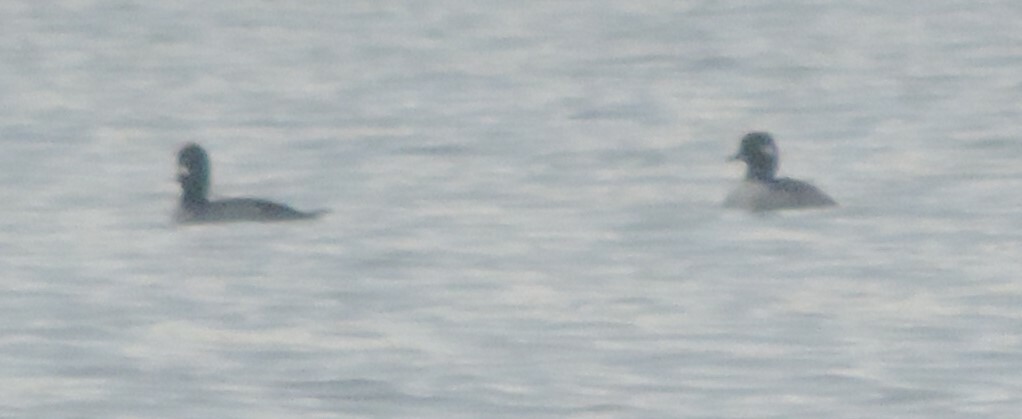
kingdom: Animalia
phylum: Chordata
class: Aves
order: Anseriformes
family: Anatidae
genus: Bucephala
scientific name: Bucephala albeola
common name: Bufflehead
